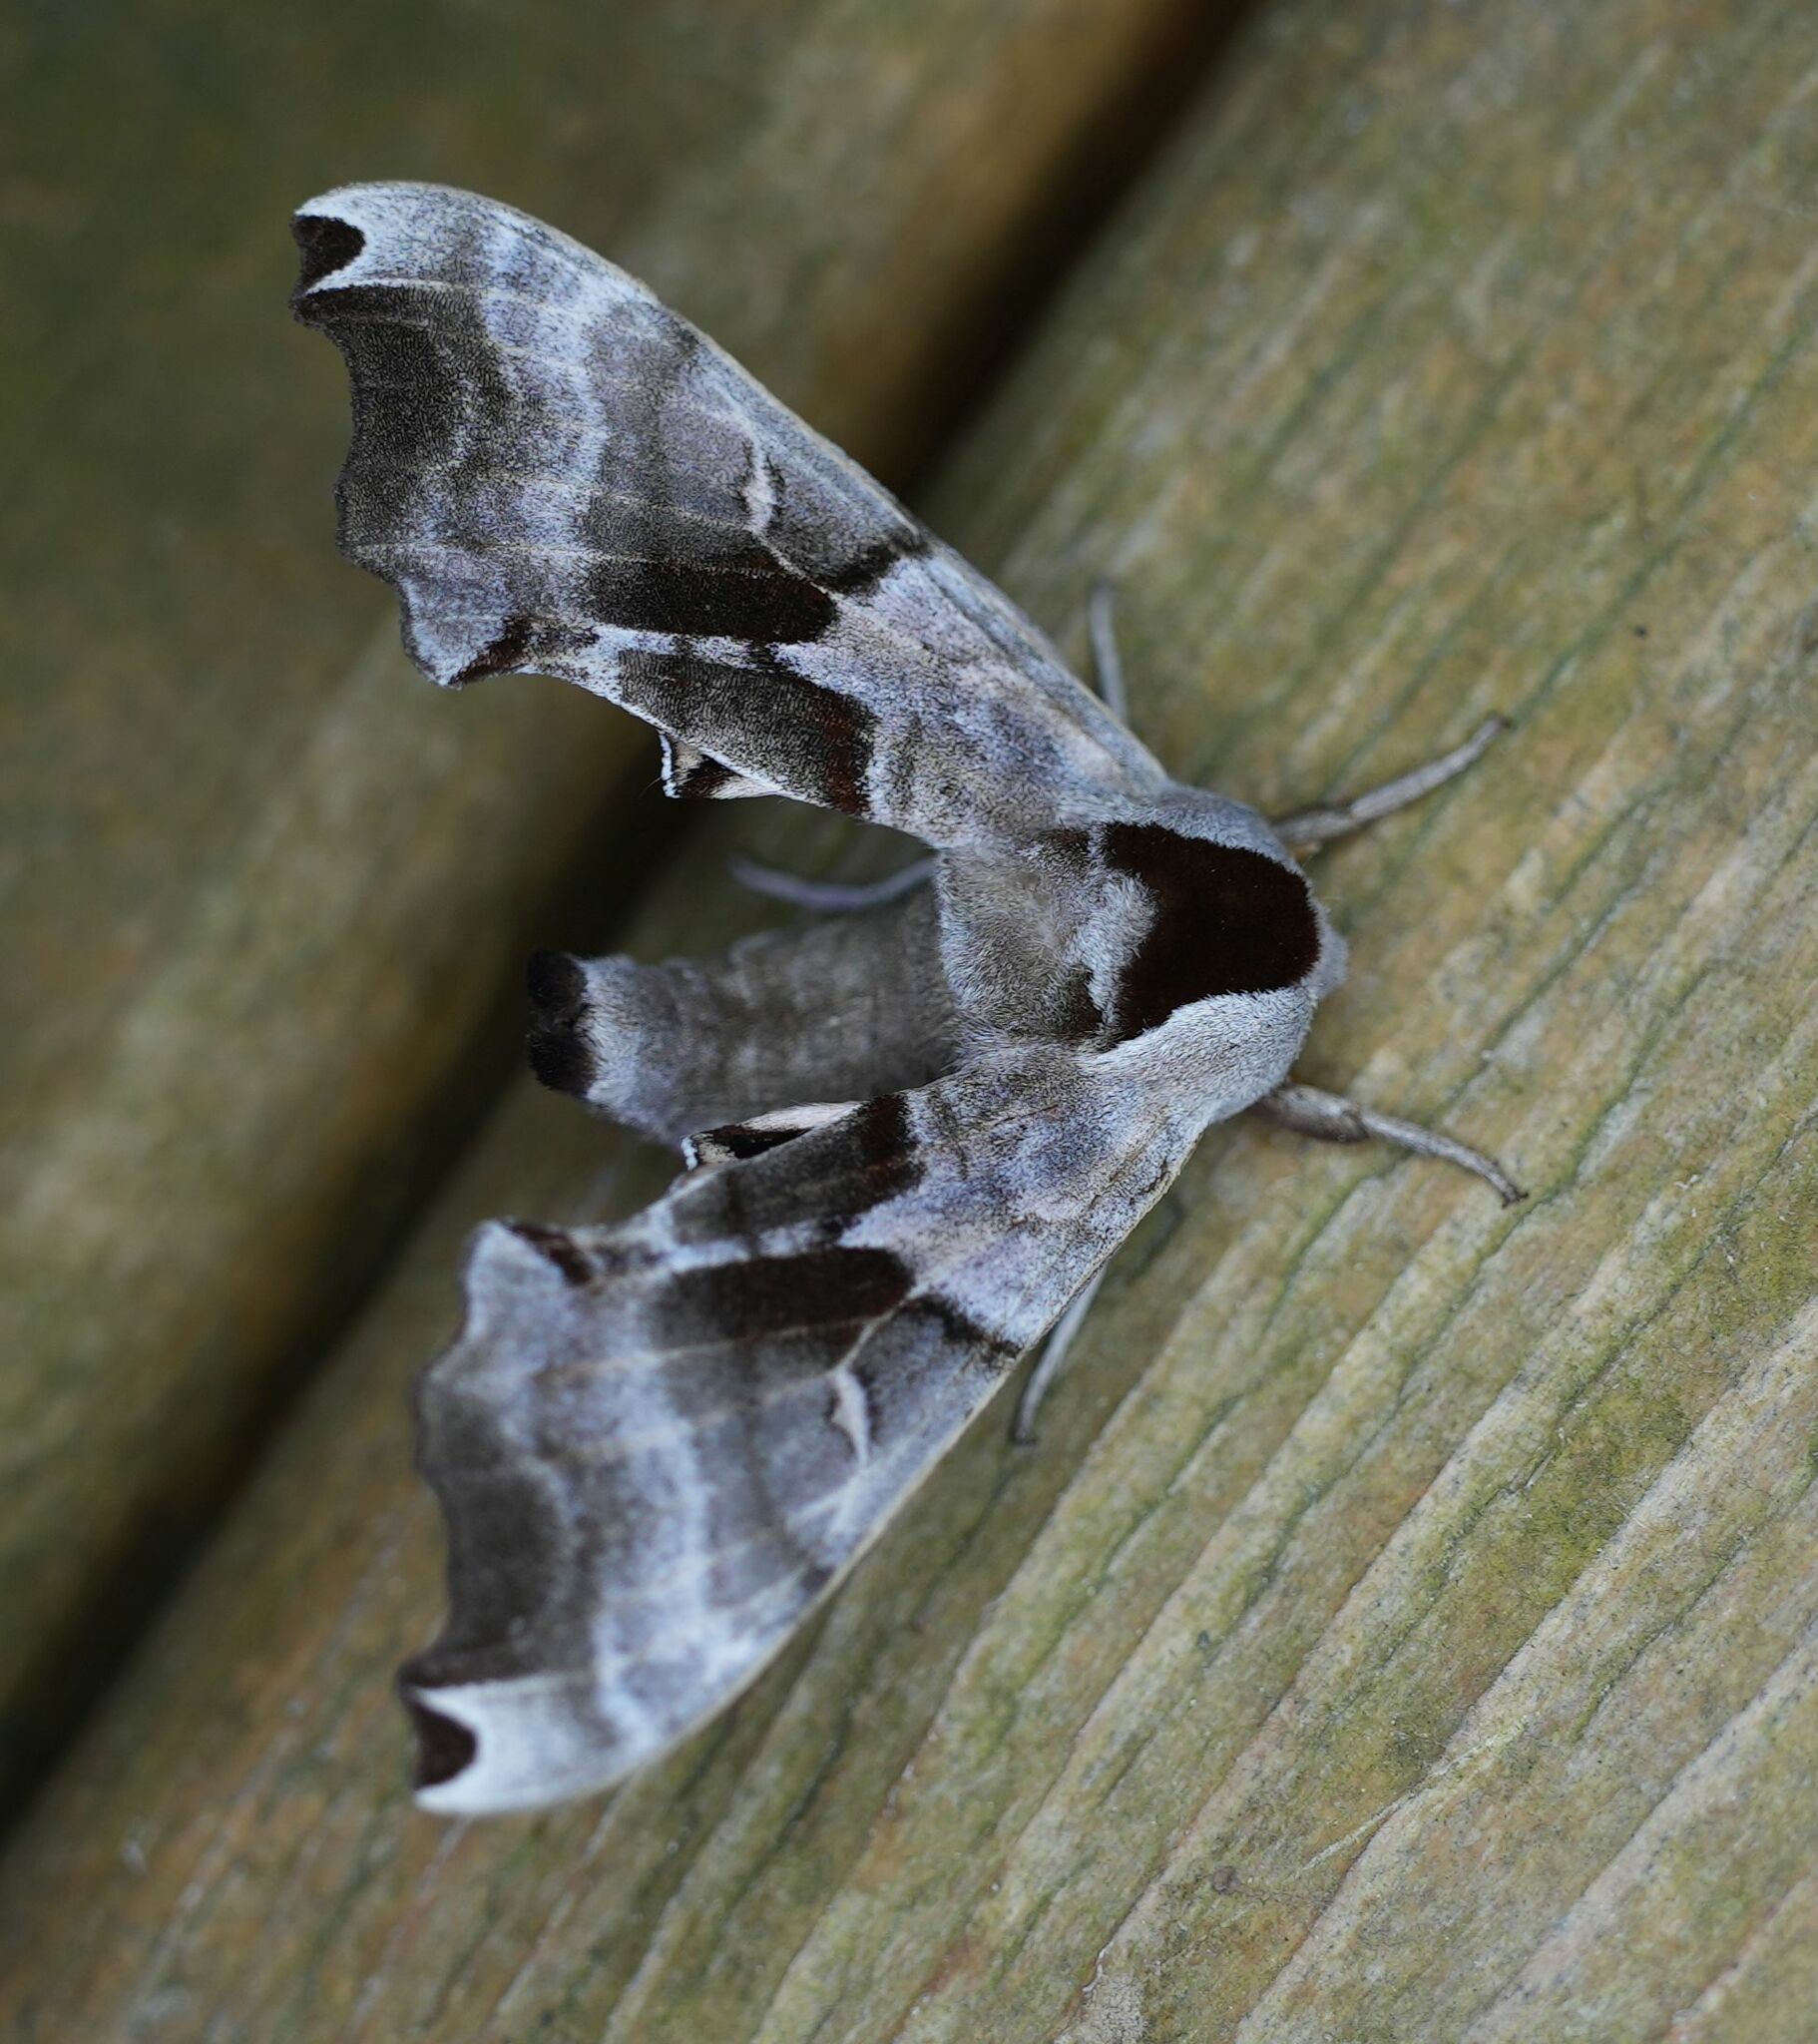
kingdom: Animalia
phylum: Arthropoda
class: Insecta
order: Lepidoptera
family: Sphingidae
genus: Smerinthus
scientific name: Smerinthus jamaicensis
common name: Twin spotted sphinx
